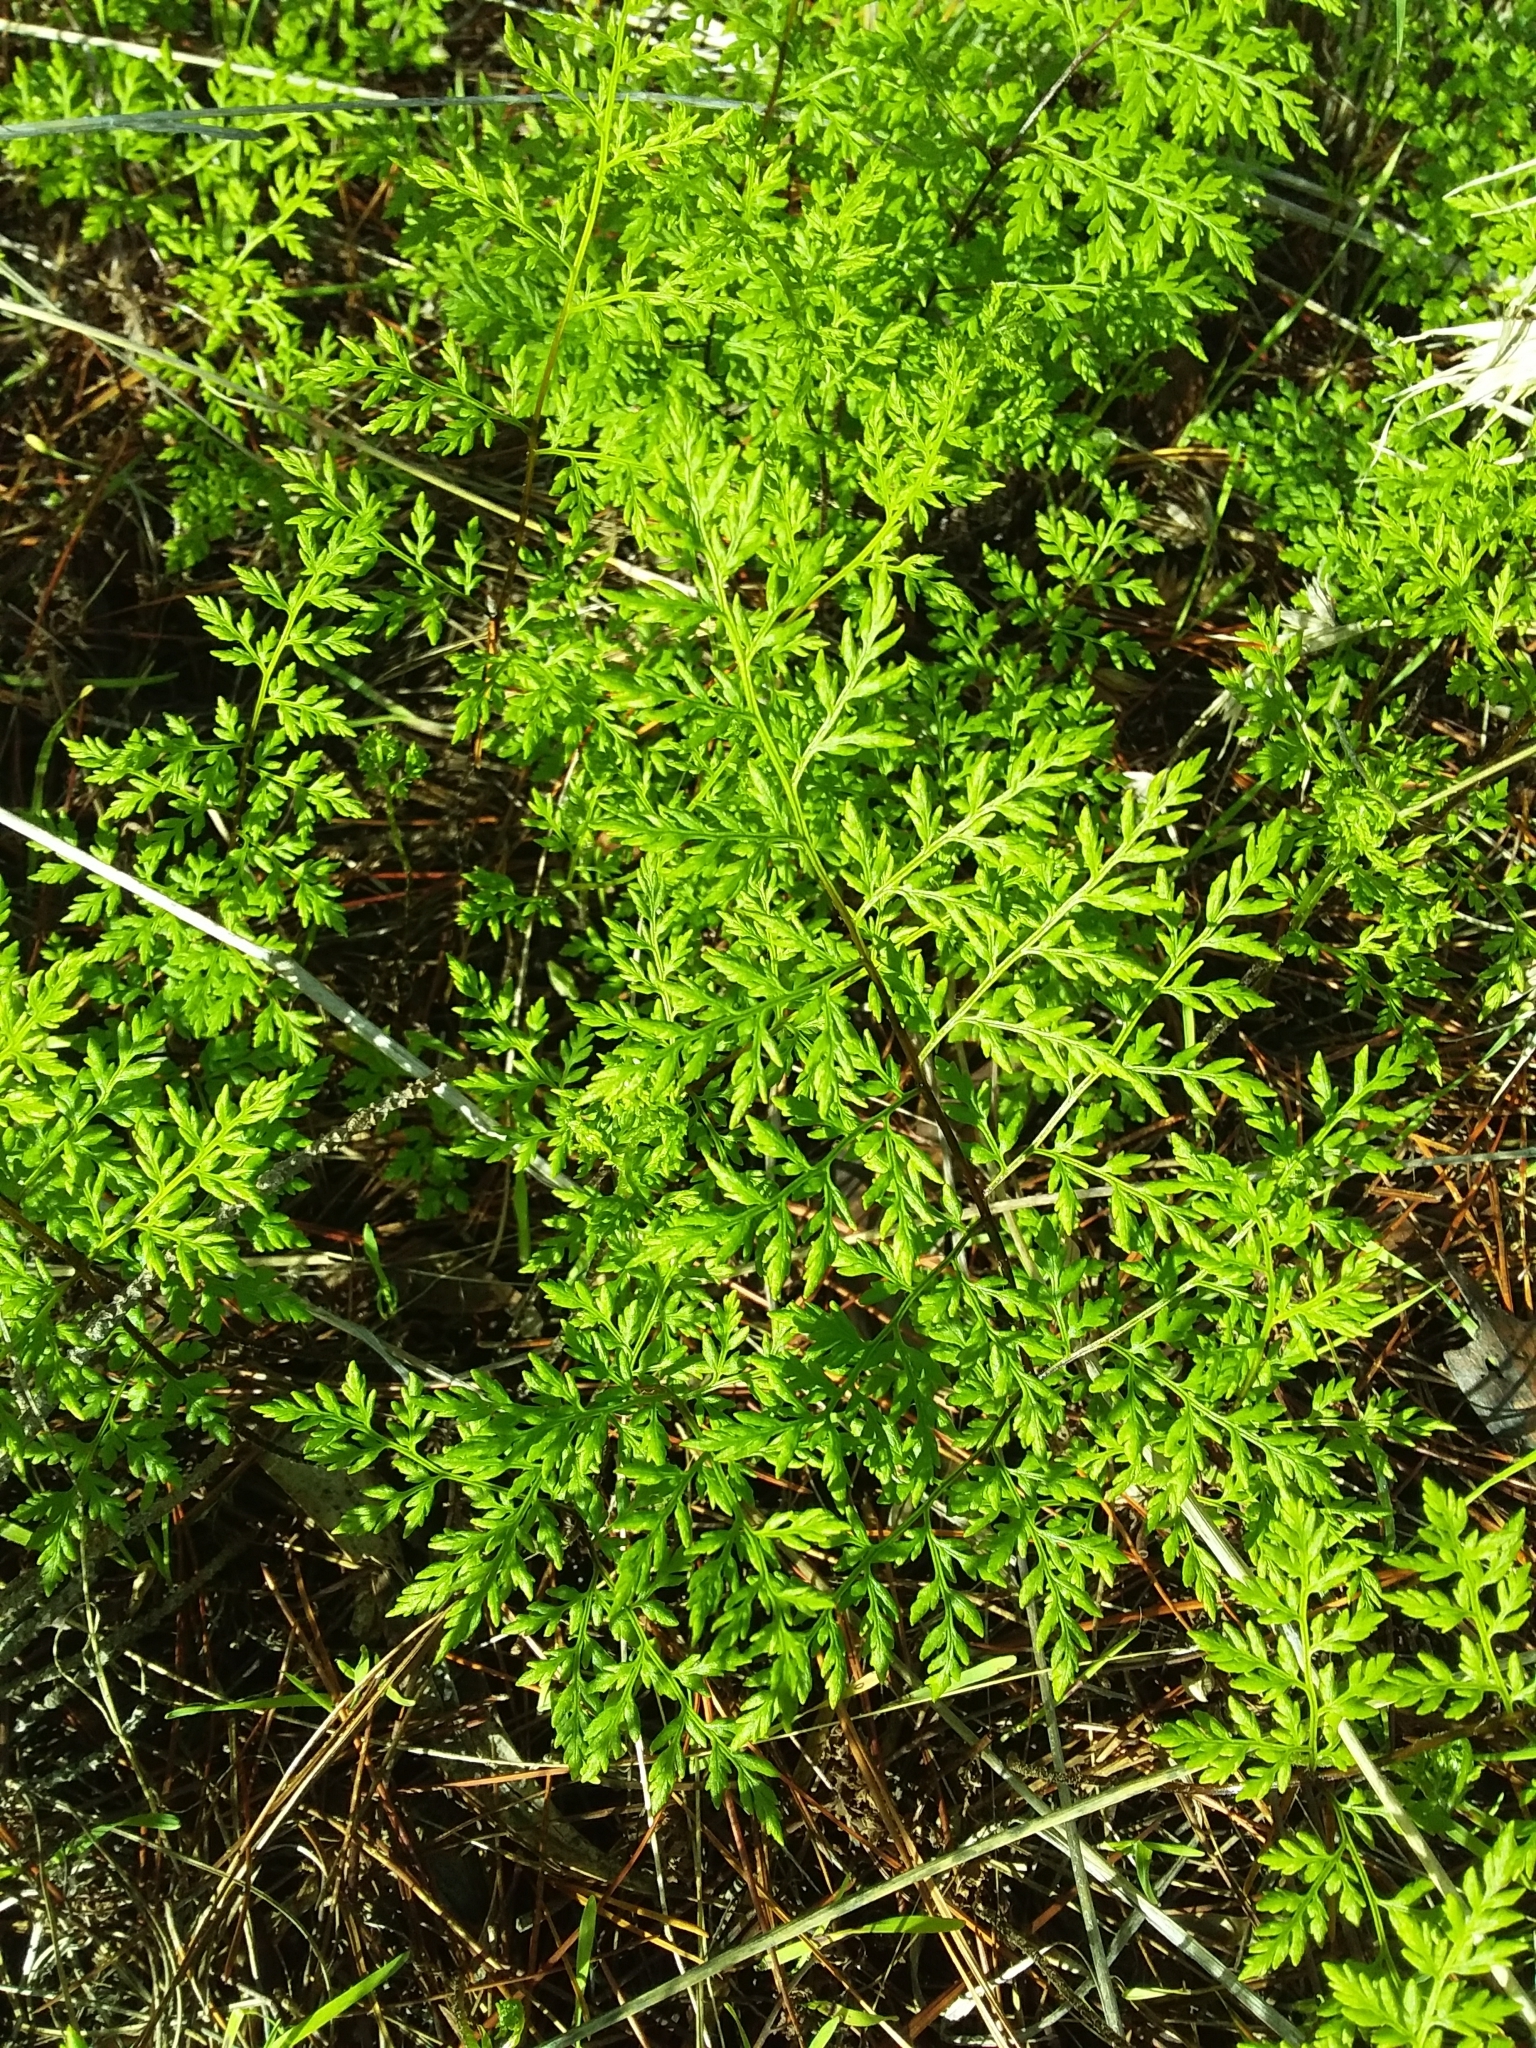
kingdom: Plantae
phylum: Tracheophyta
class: Polypodiopsida
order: Polypodiales
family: Pteridaceae
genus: Cheilanthes
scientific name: Cheilanthes austrotenuifolia
